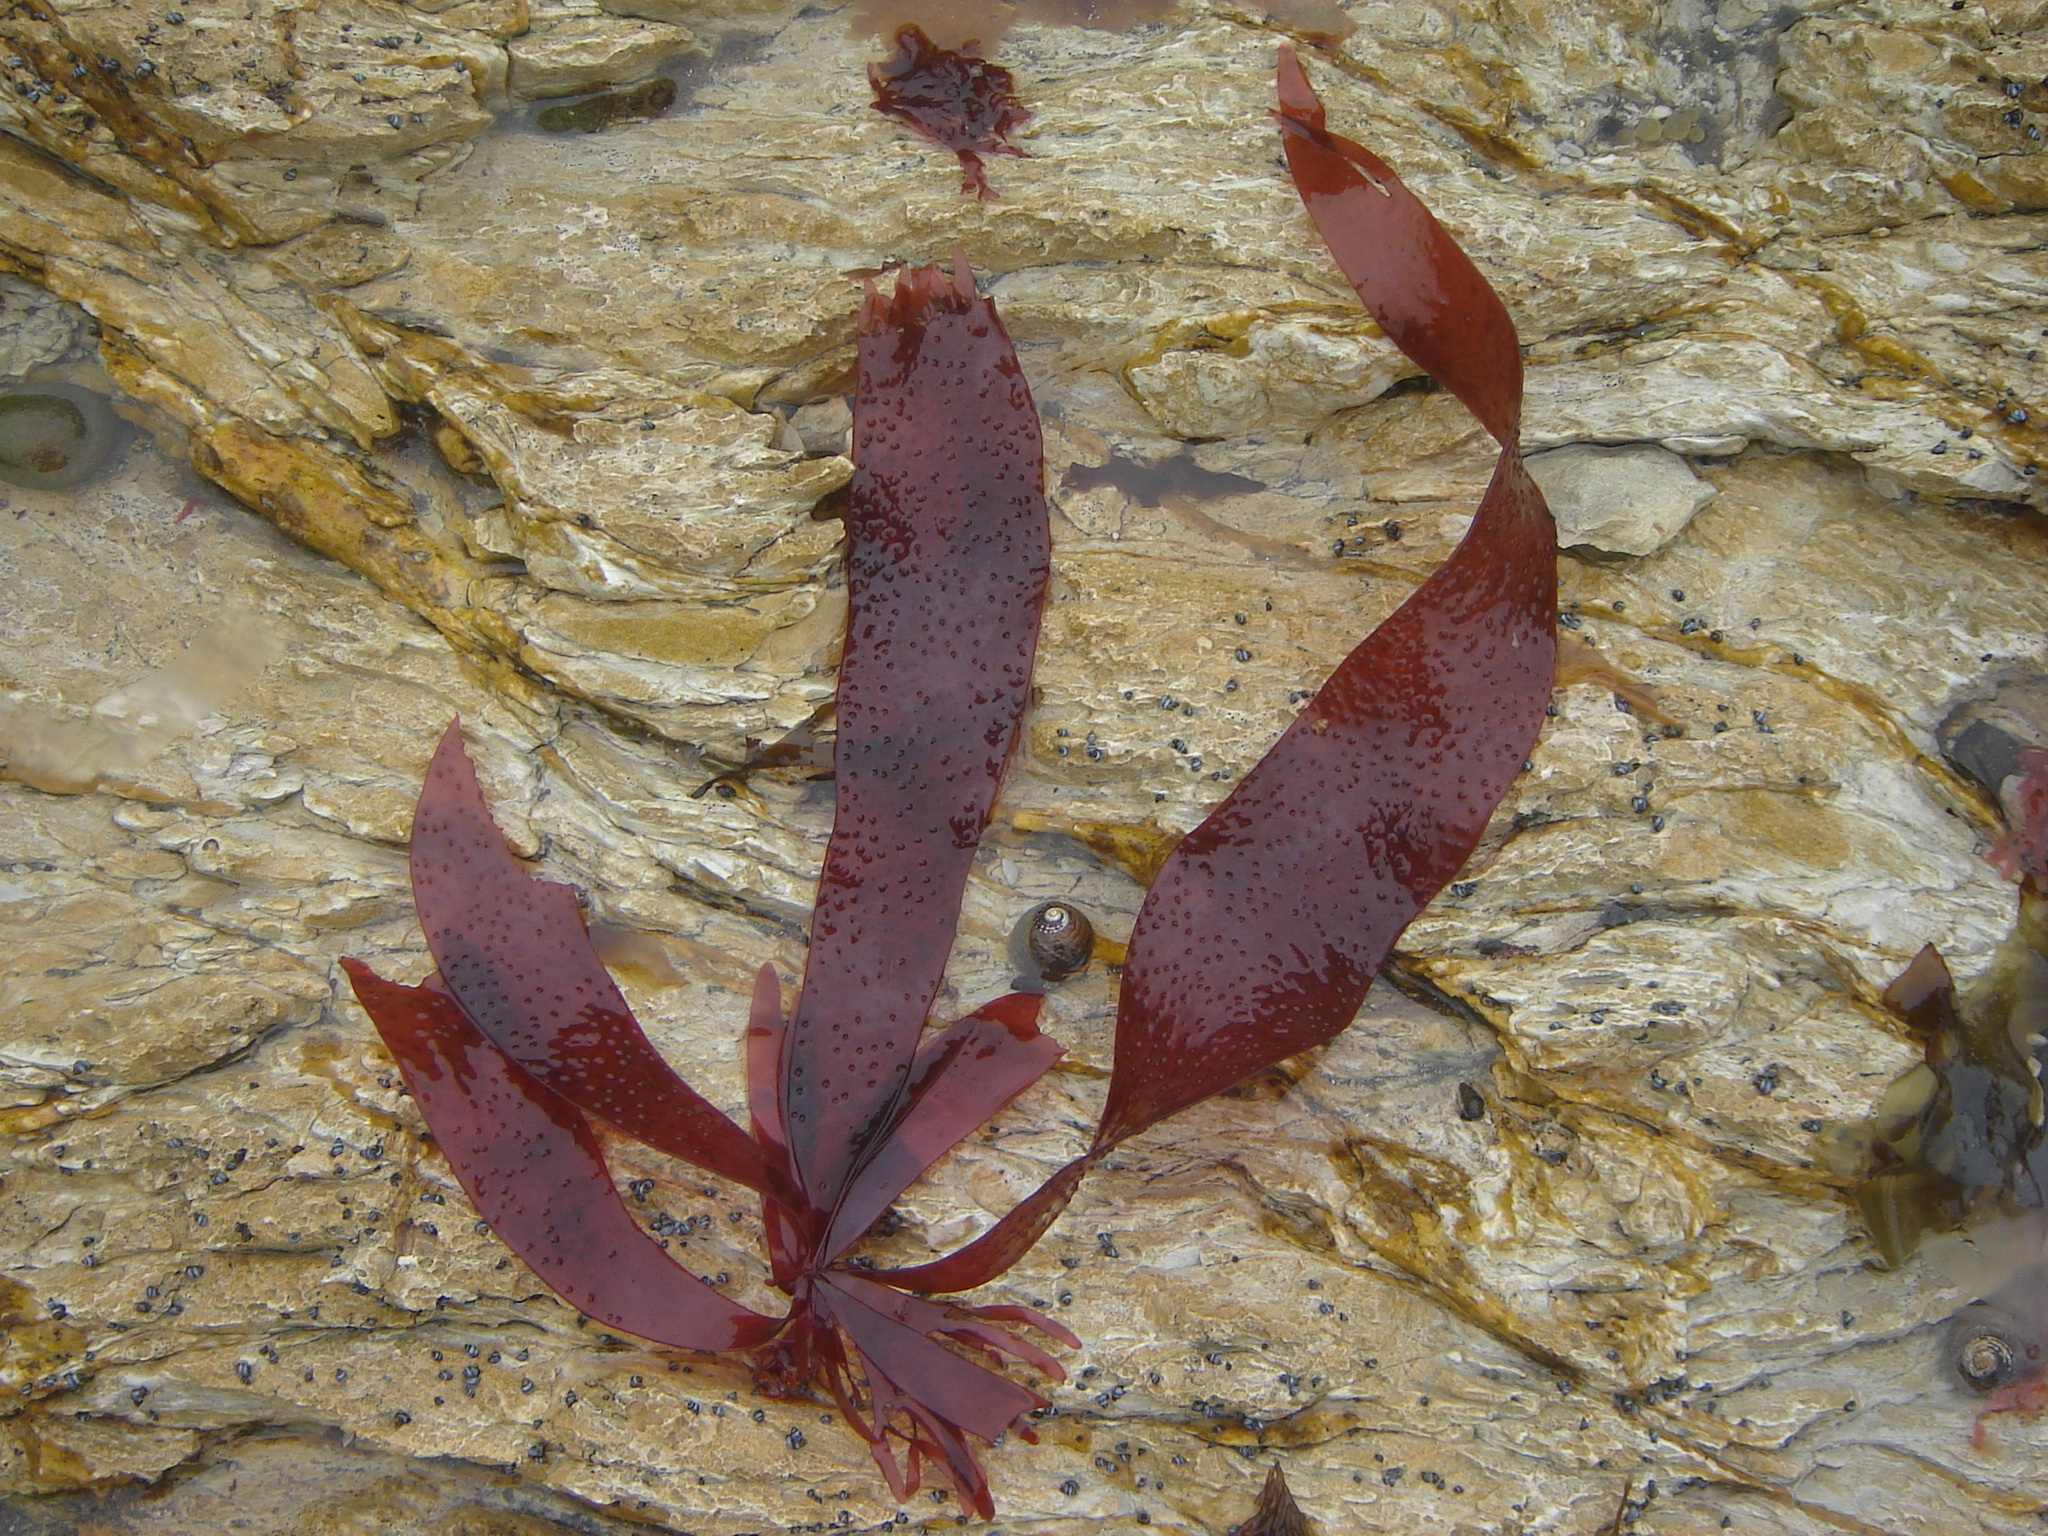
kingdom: Plantae
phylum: Rhodophyta
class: Florideophyceae
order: Rhodymeniales
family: Hymenocladiaceae
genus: Hymenocladia
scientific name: Hymenocladia sanguinea
